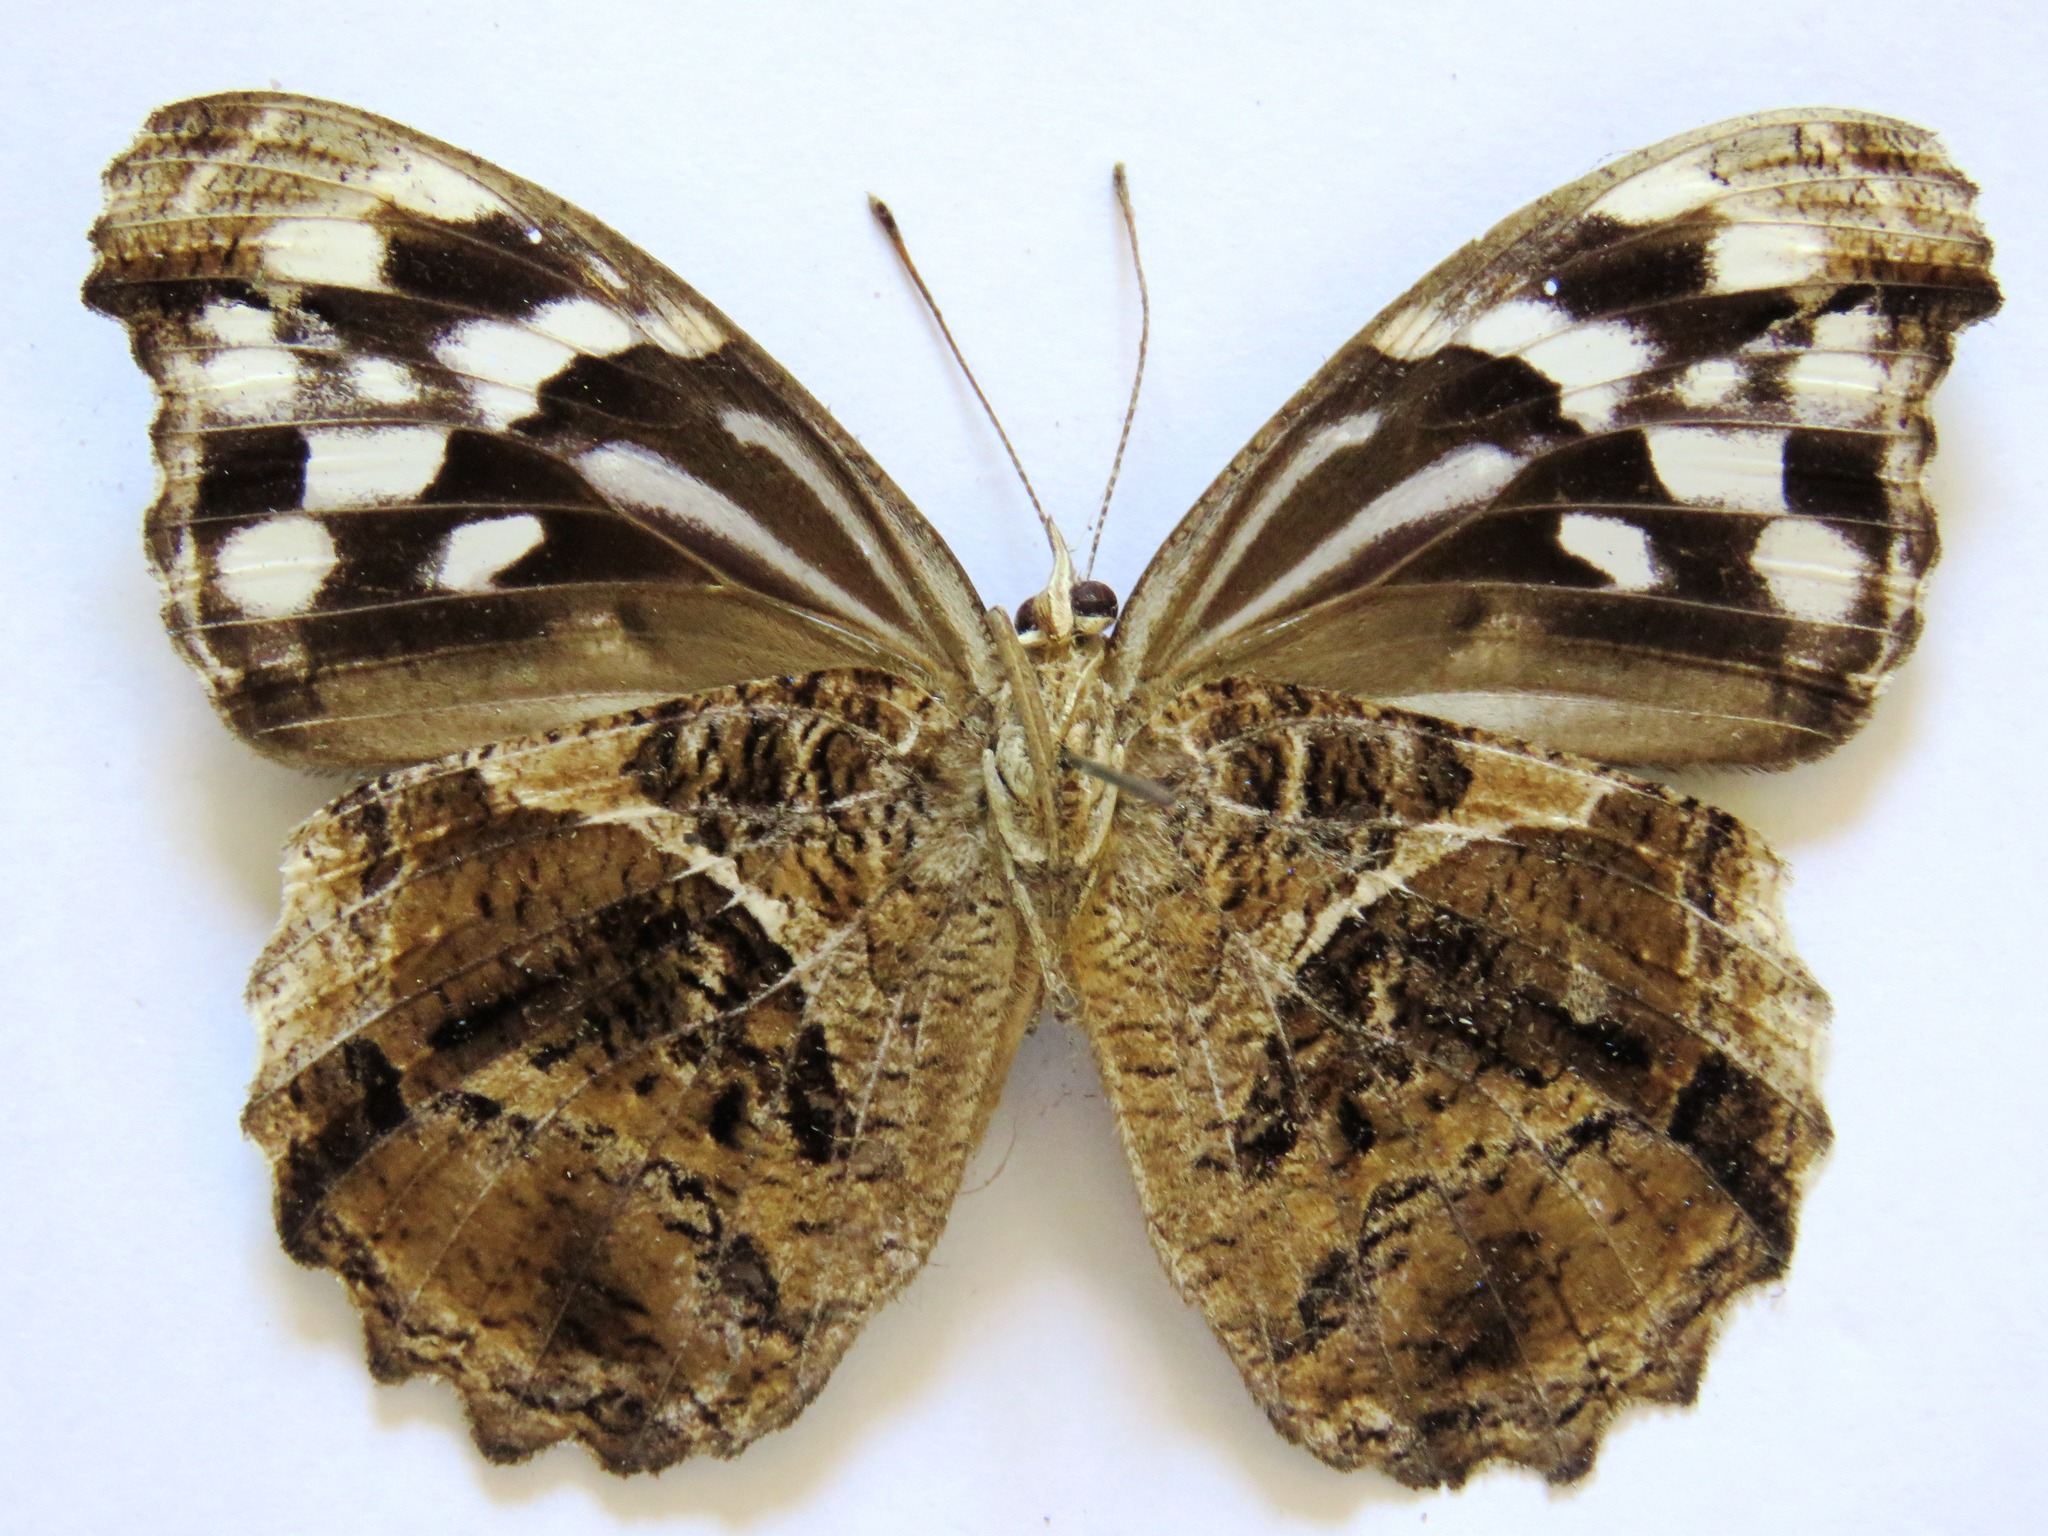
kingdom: Animalia
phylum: Arthropoda
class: Insecta
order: Lepidoptera
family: Nymphalidae
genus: Myscelia
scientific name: Myscelia ethusa
